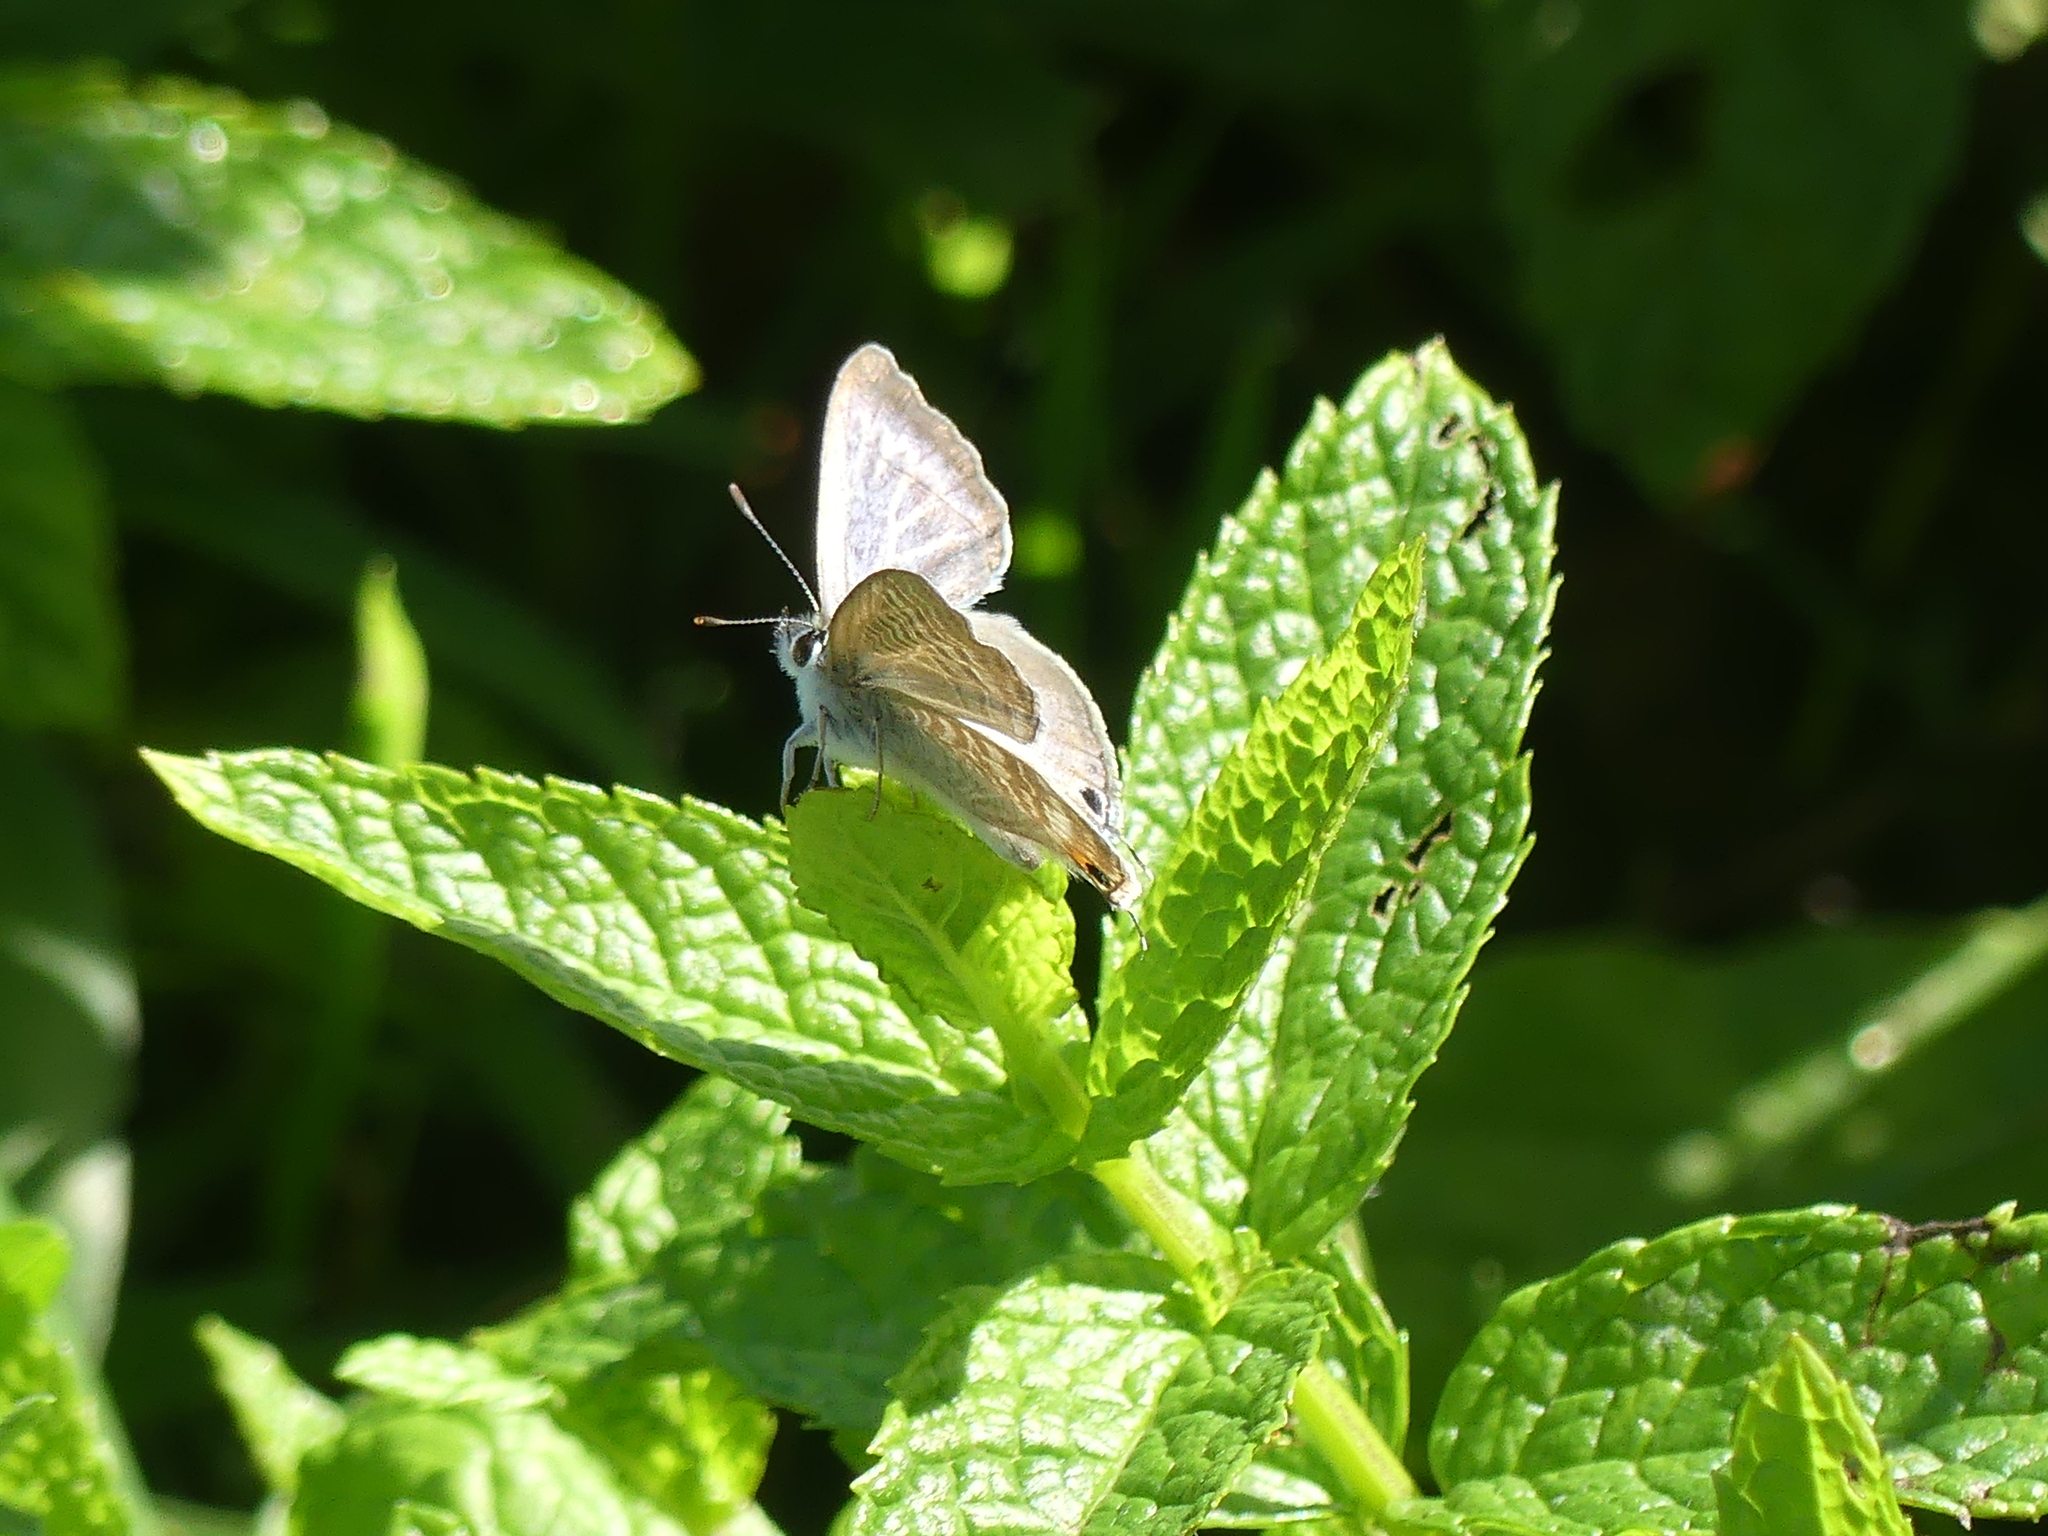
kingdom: Animalia
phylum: Arthropoda
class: Insecta
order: Lepidoptera
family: Lycaenidae
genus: Lampides
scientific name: Lampides boeticus
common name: Long-tailed blue
